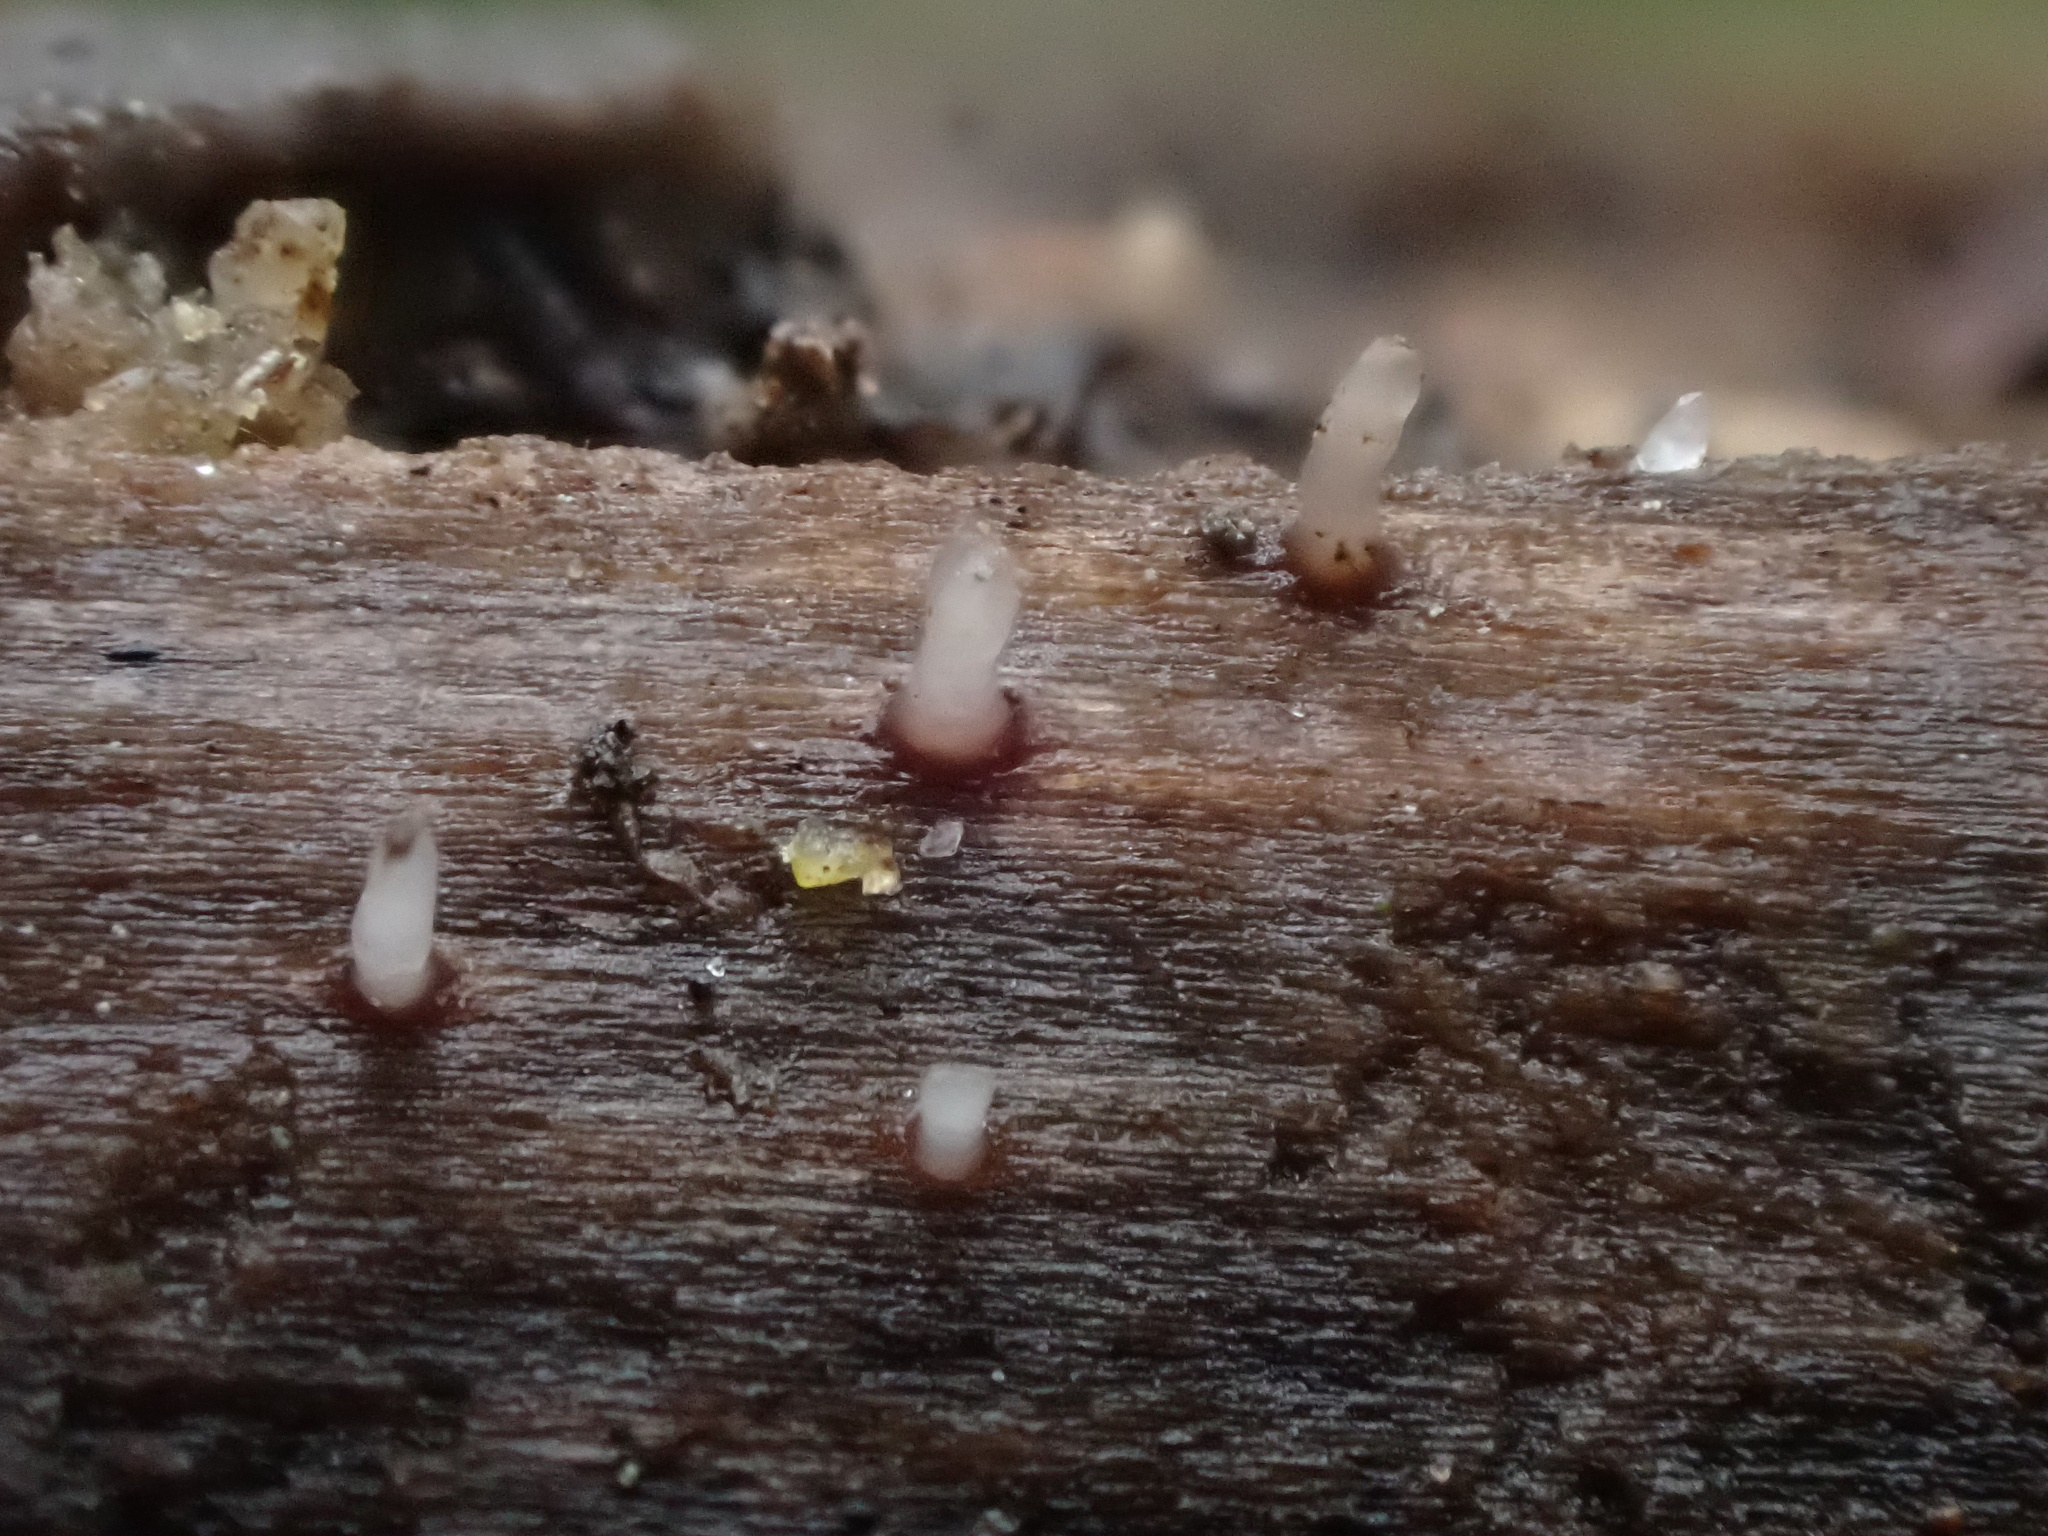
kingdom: Fungi
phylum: Ascomycota
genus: Cornucopiella
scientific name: Cornucopiella fusispora
